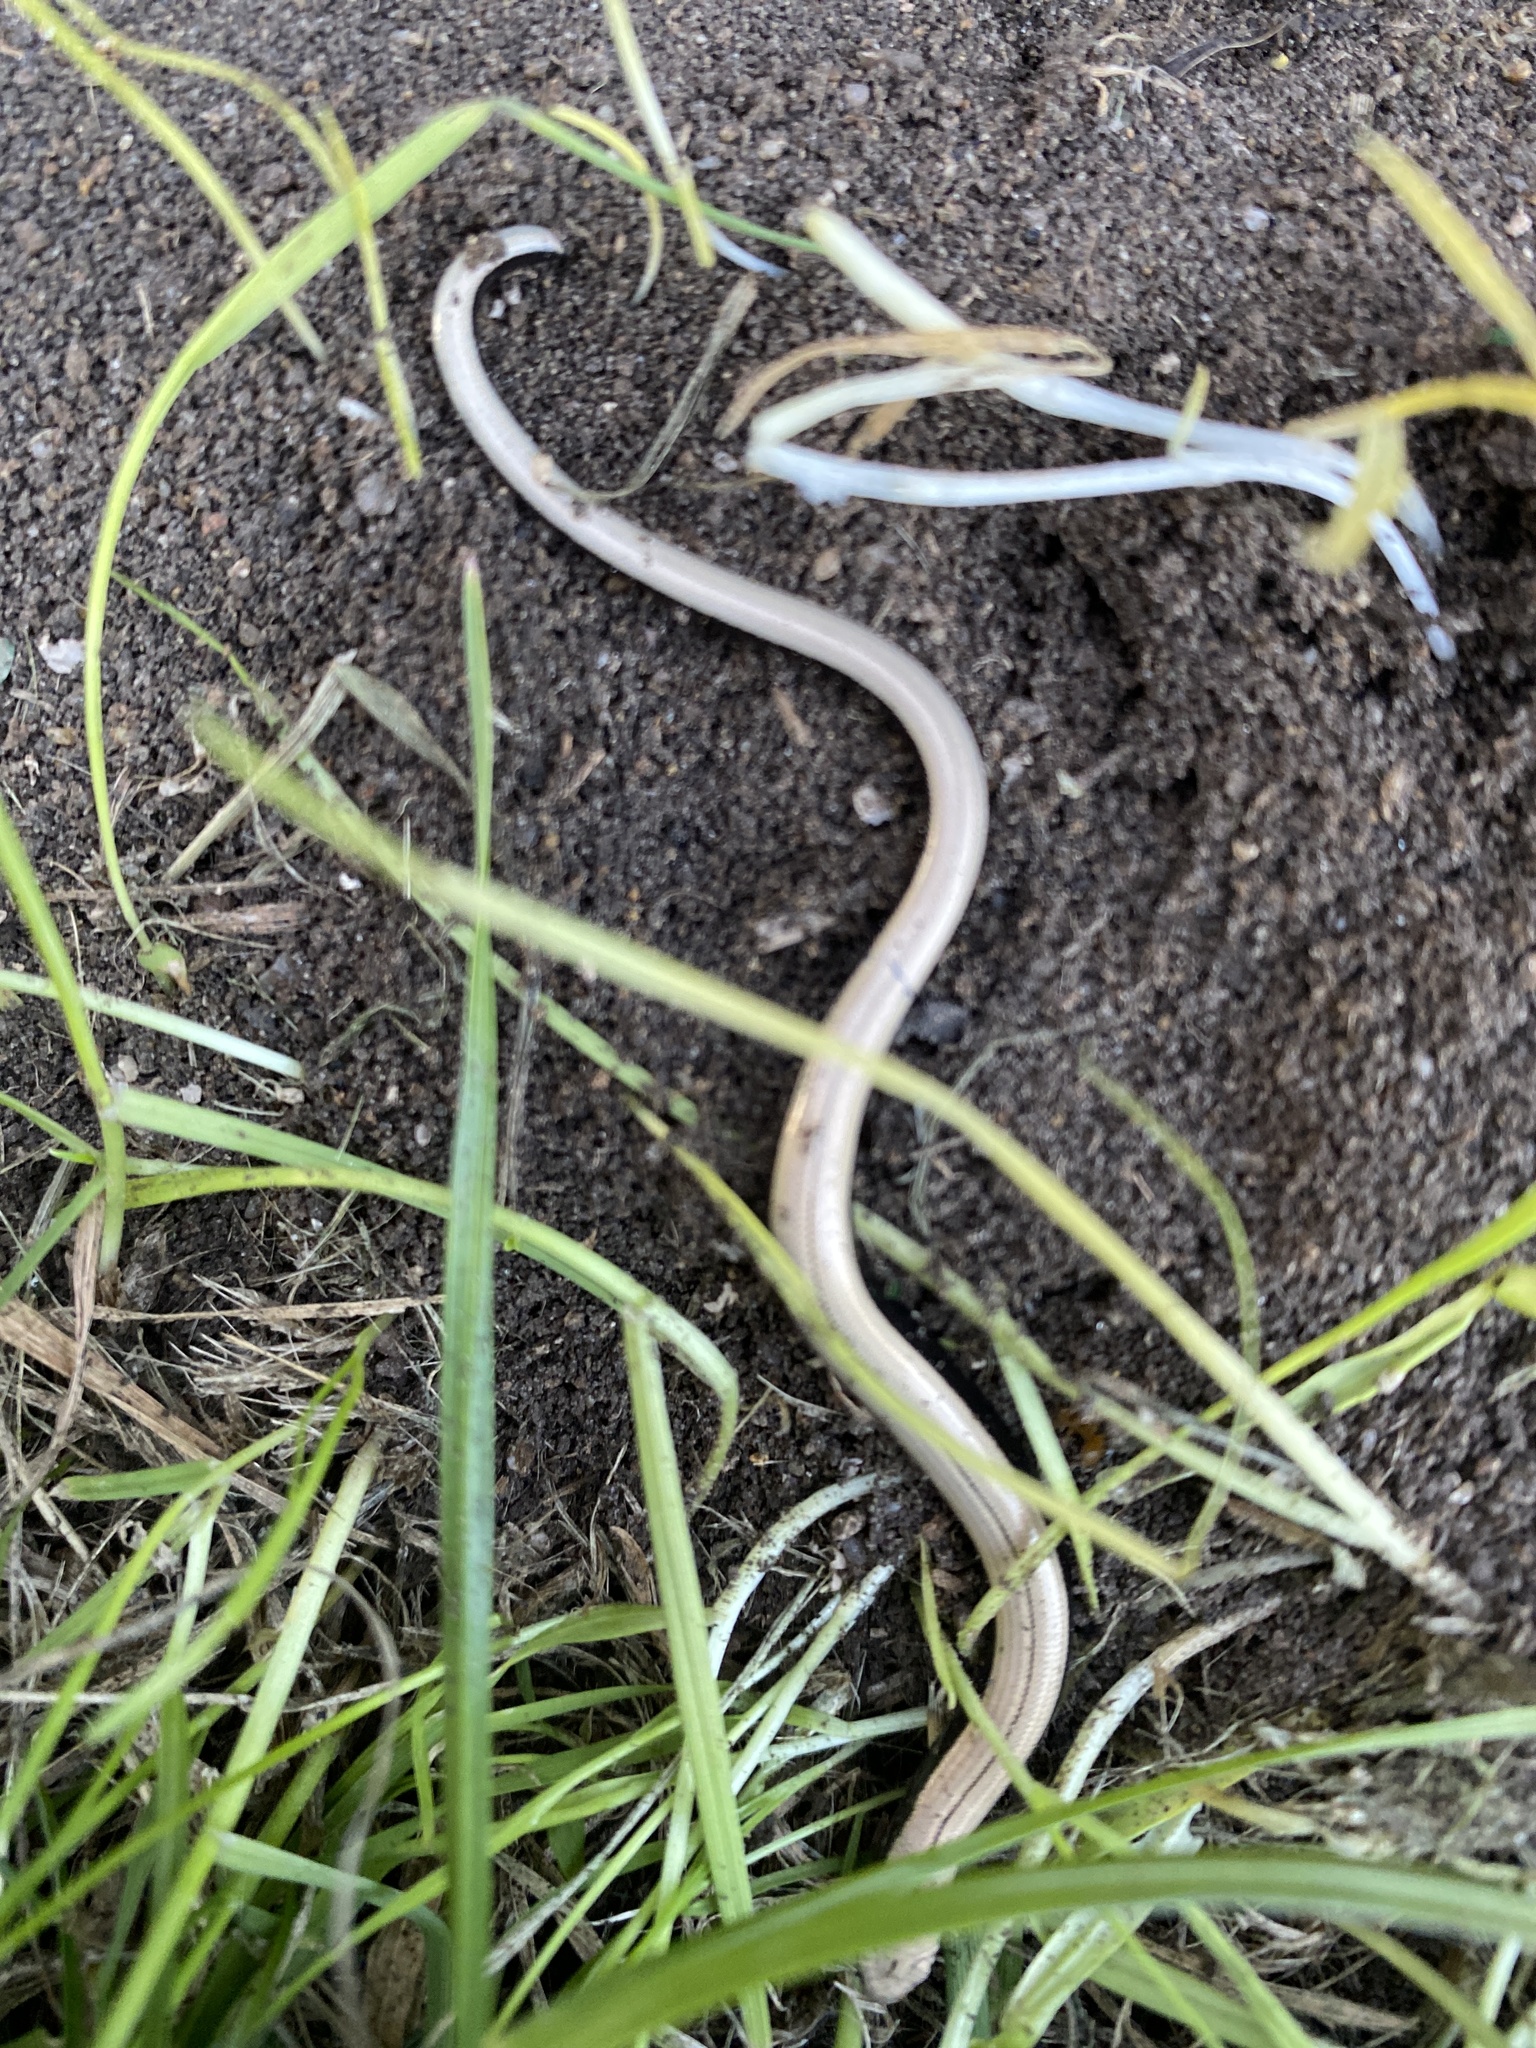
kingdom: Animalia
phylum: Chordata
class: Squamata
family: Anguidae
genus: Anguis
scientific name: Anguis fragilis
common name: Slow worm
